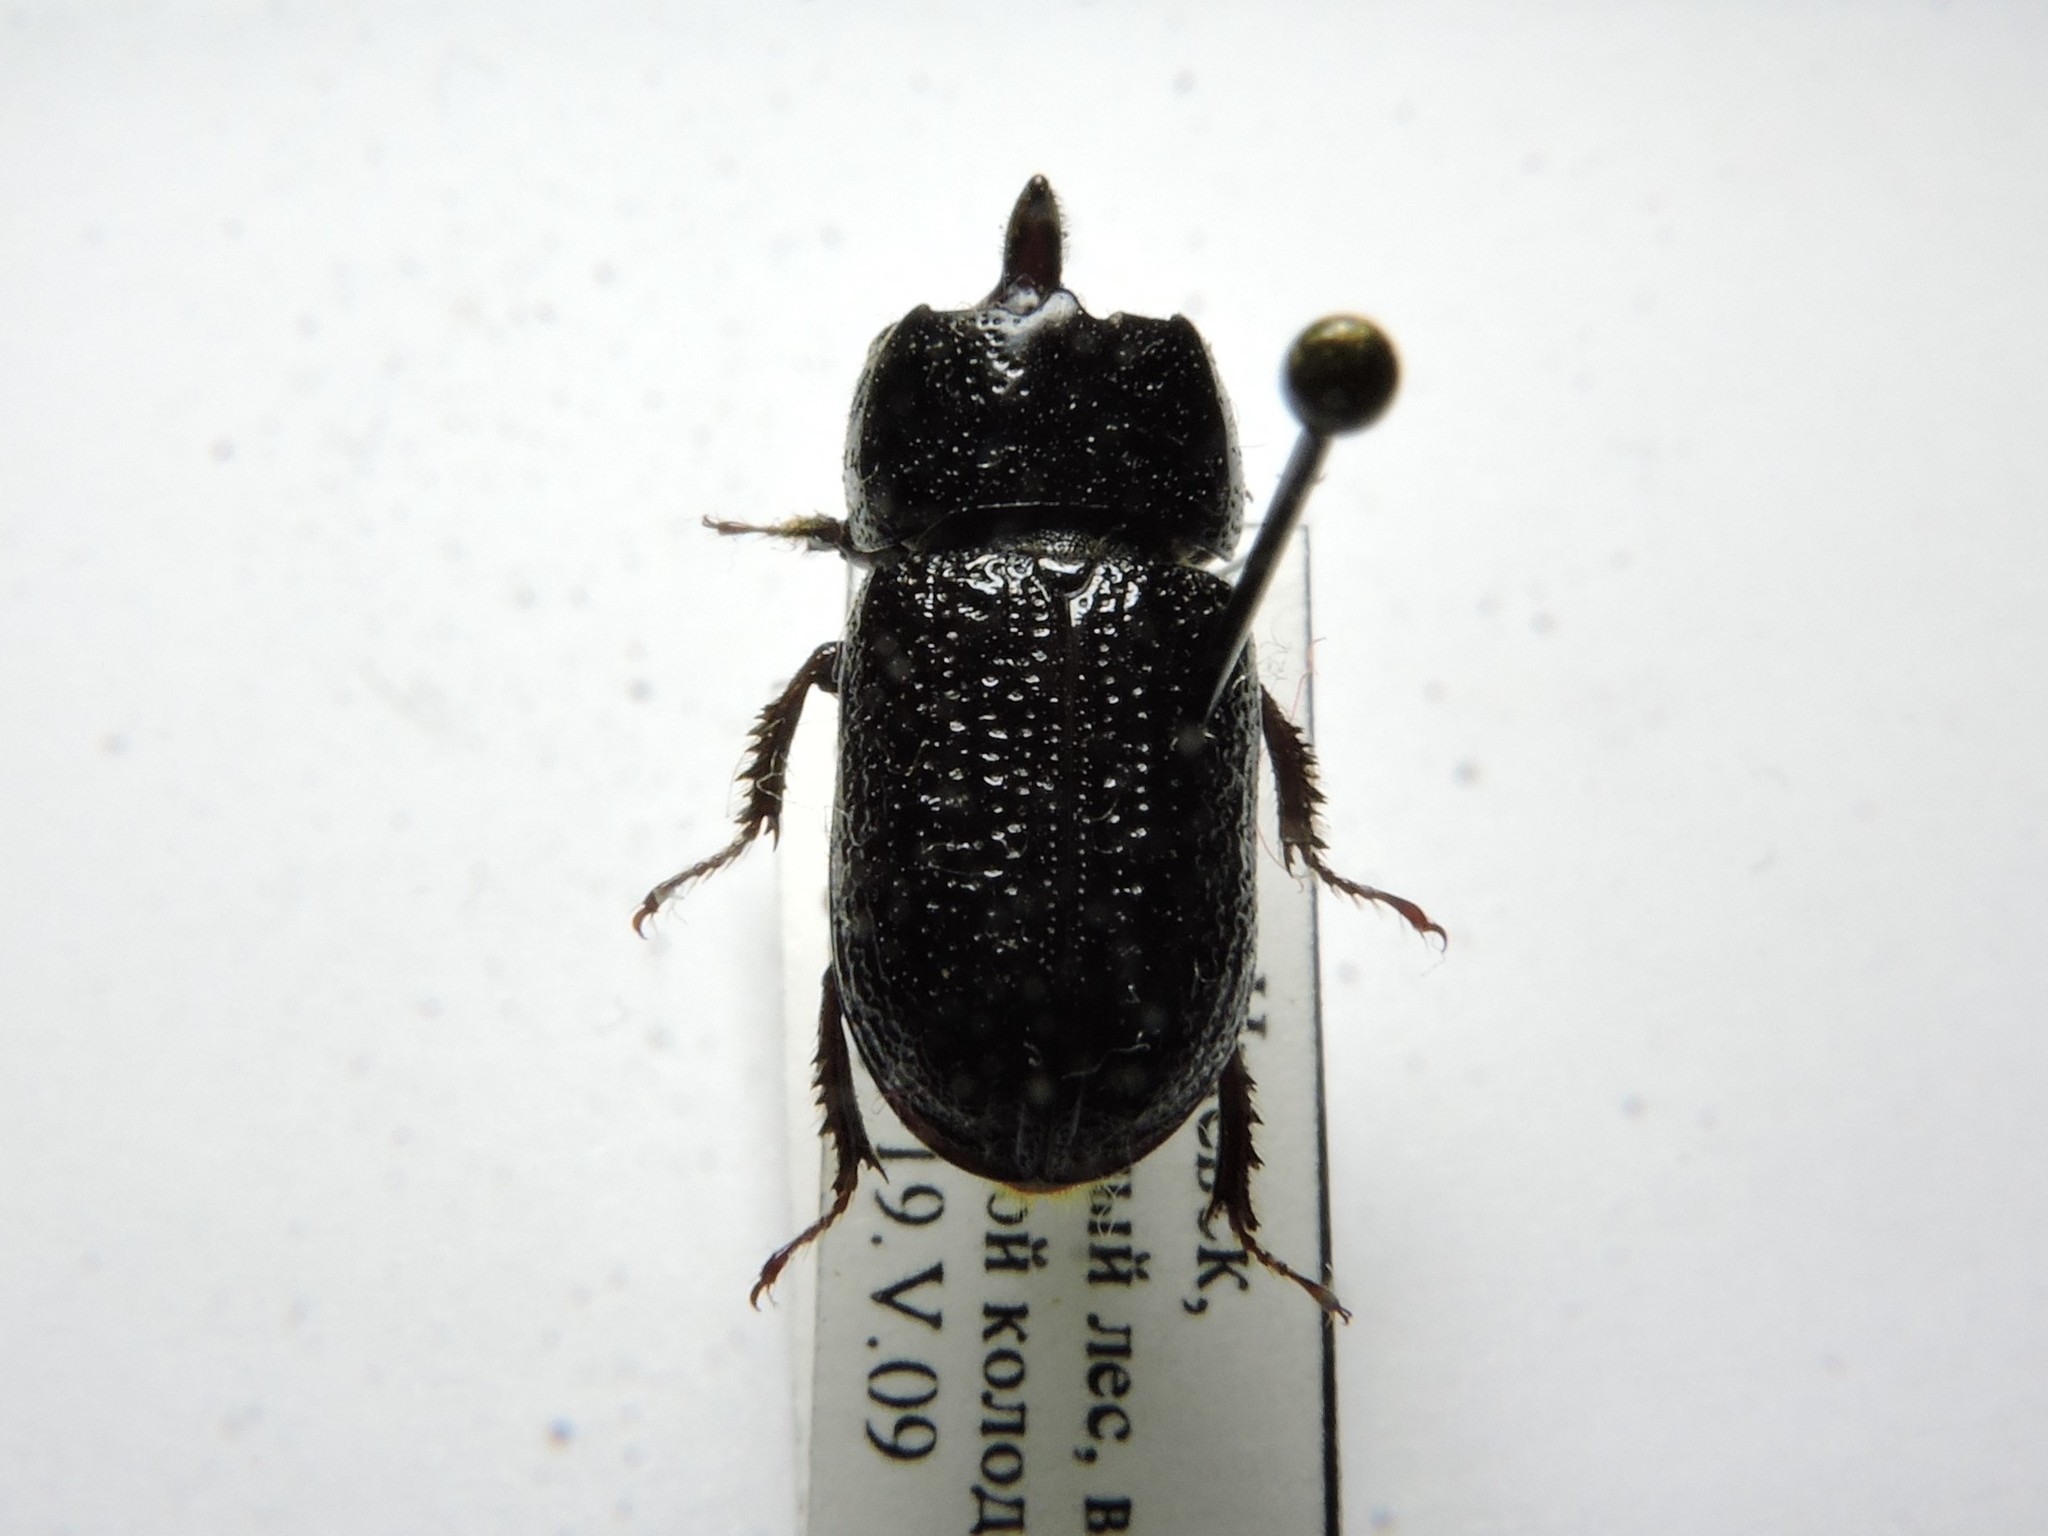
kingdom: Animalia
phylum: Arthropoda
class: Insecta
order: Coleoptera
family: Lucanidae
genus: Sinodendron
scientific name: Sinodendron cylindricum
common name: Rhinoceros beetle
